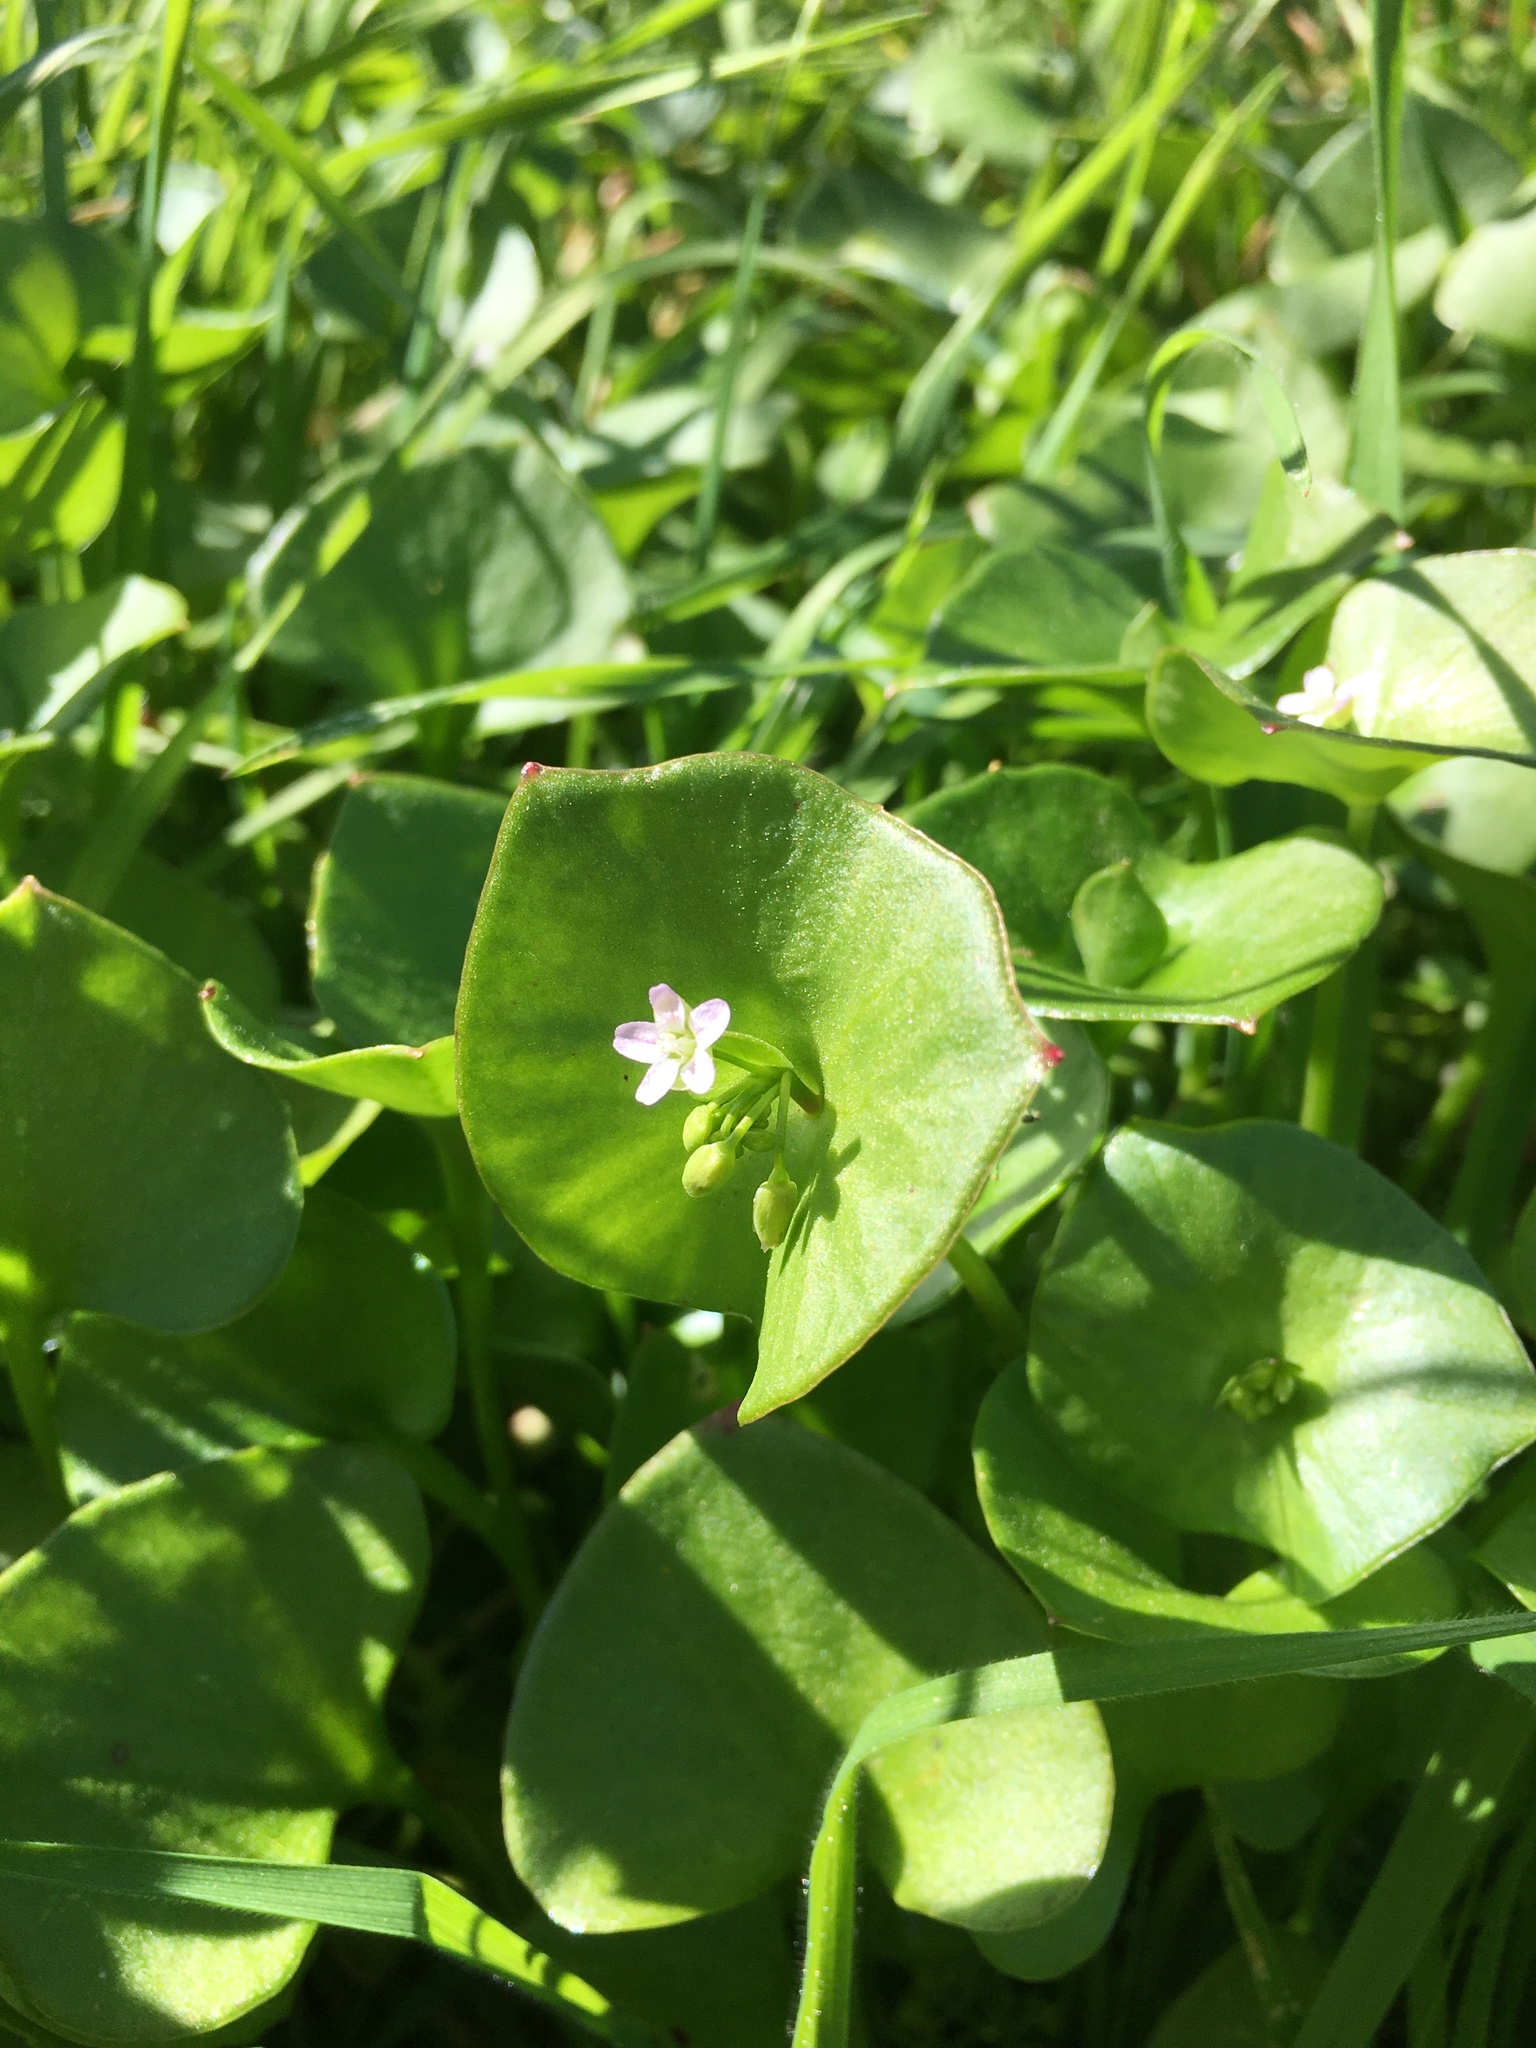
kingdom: Plantae
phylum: Tracheophyta
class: Magnoliopsida
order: Caryophyllales
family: Montiaceae
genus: Claytonia
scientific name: Claytonia perfoliata
